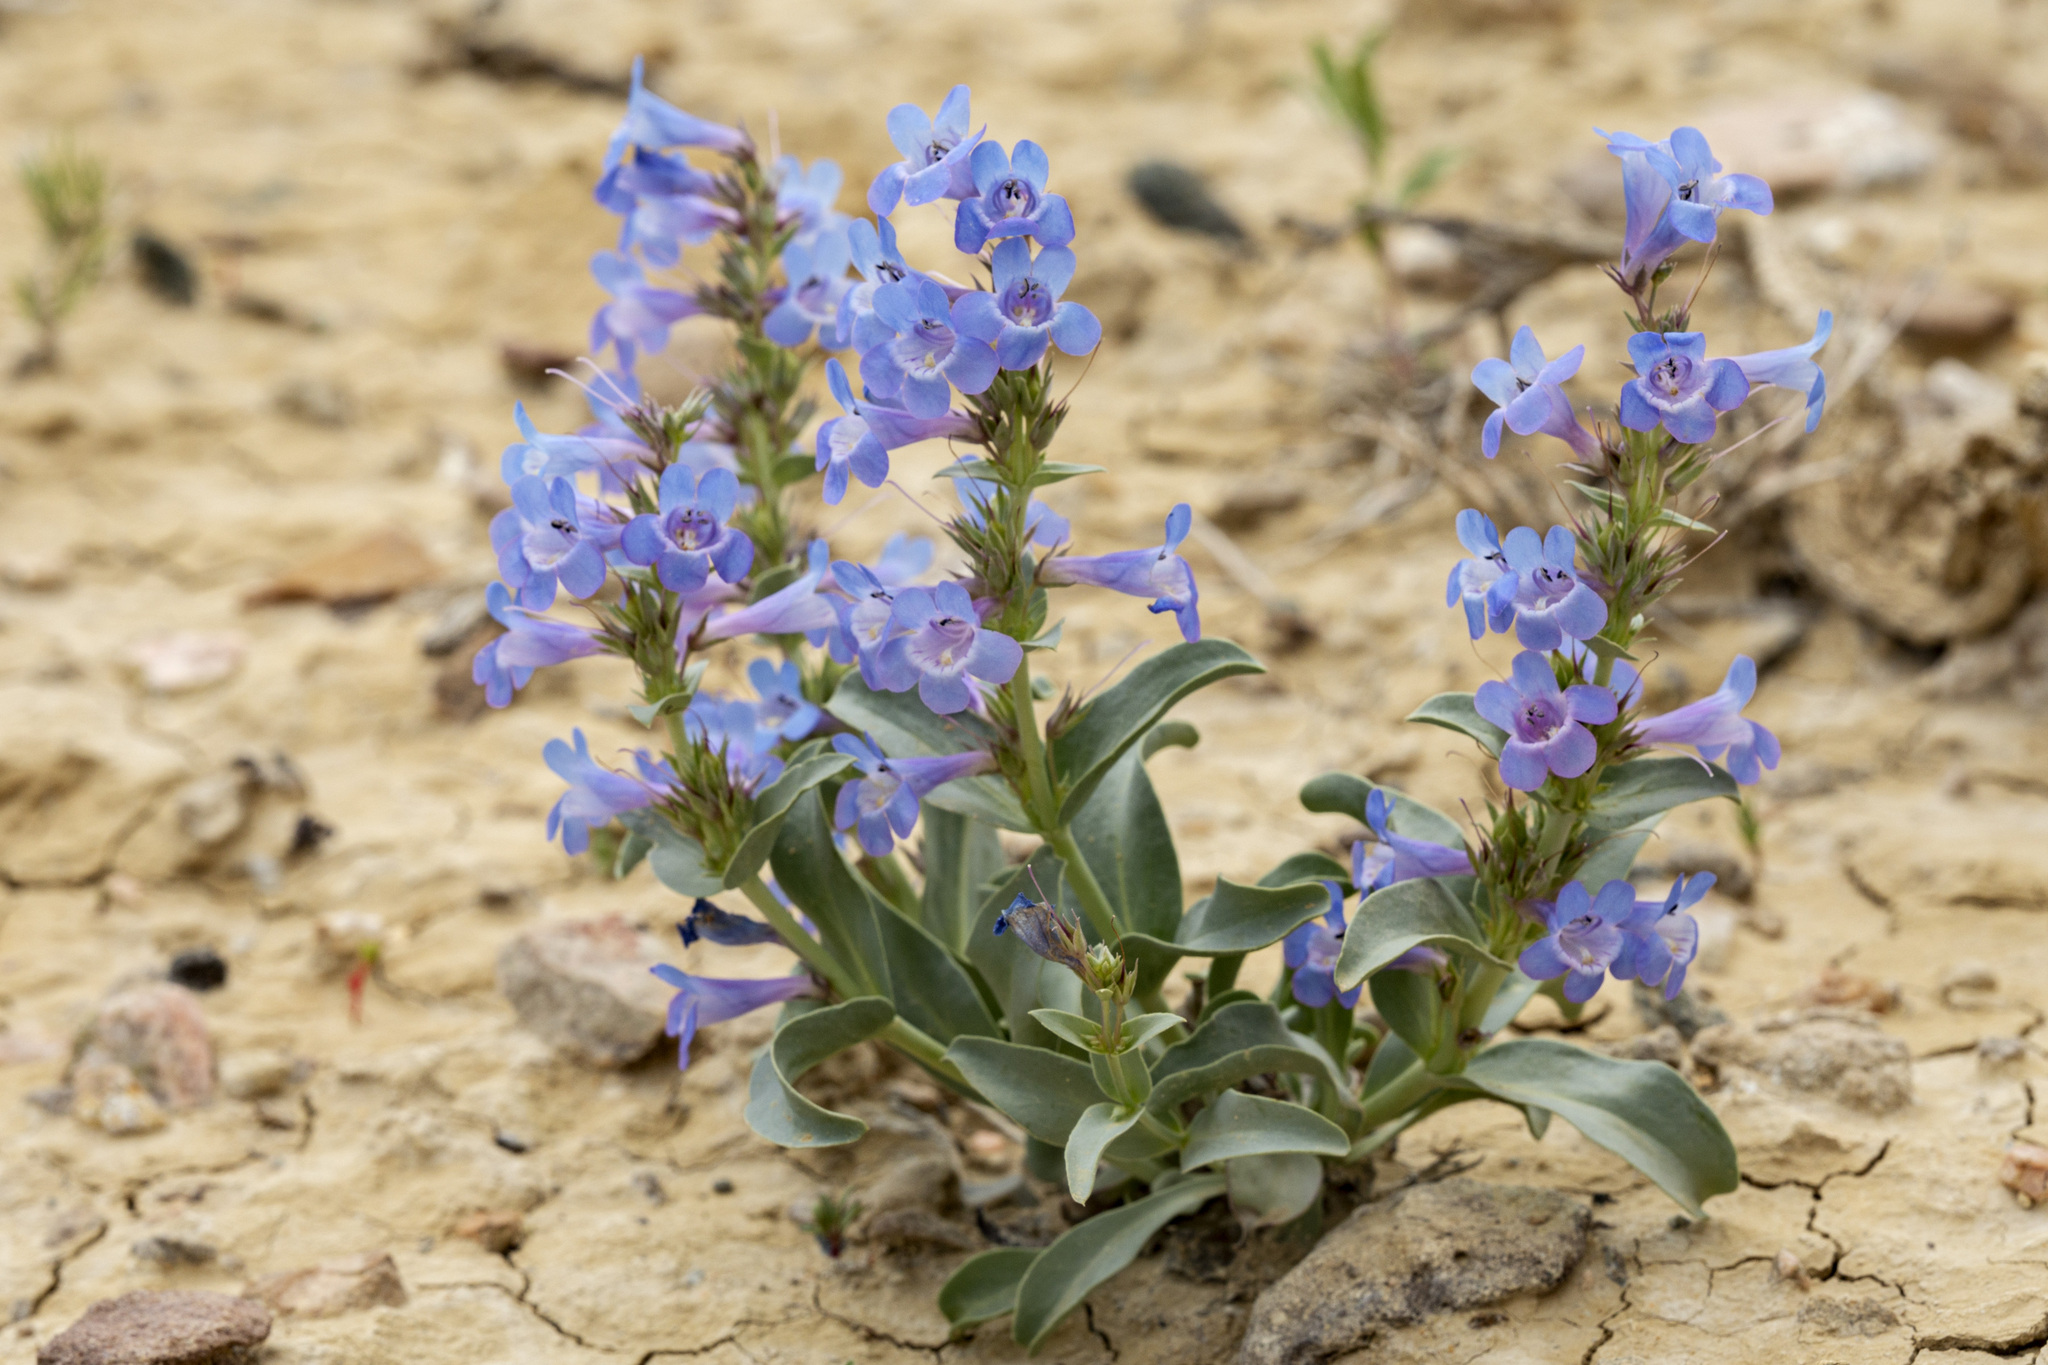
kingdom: Plantae
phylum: Tracheophyta
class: Magnoliopsida
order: Lamiales
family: Plantaginaceae
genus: Penstemon
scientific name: Penstemon nitidus
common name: Shining penstemon
